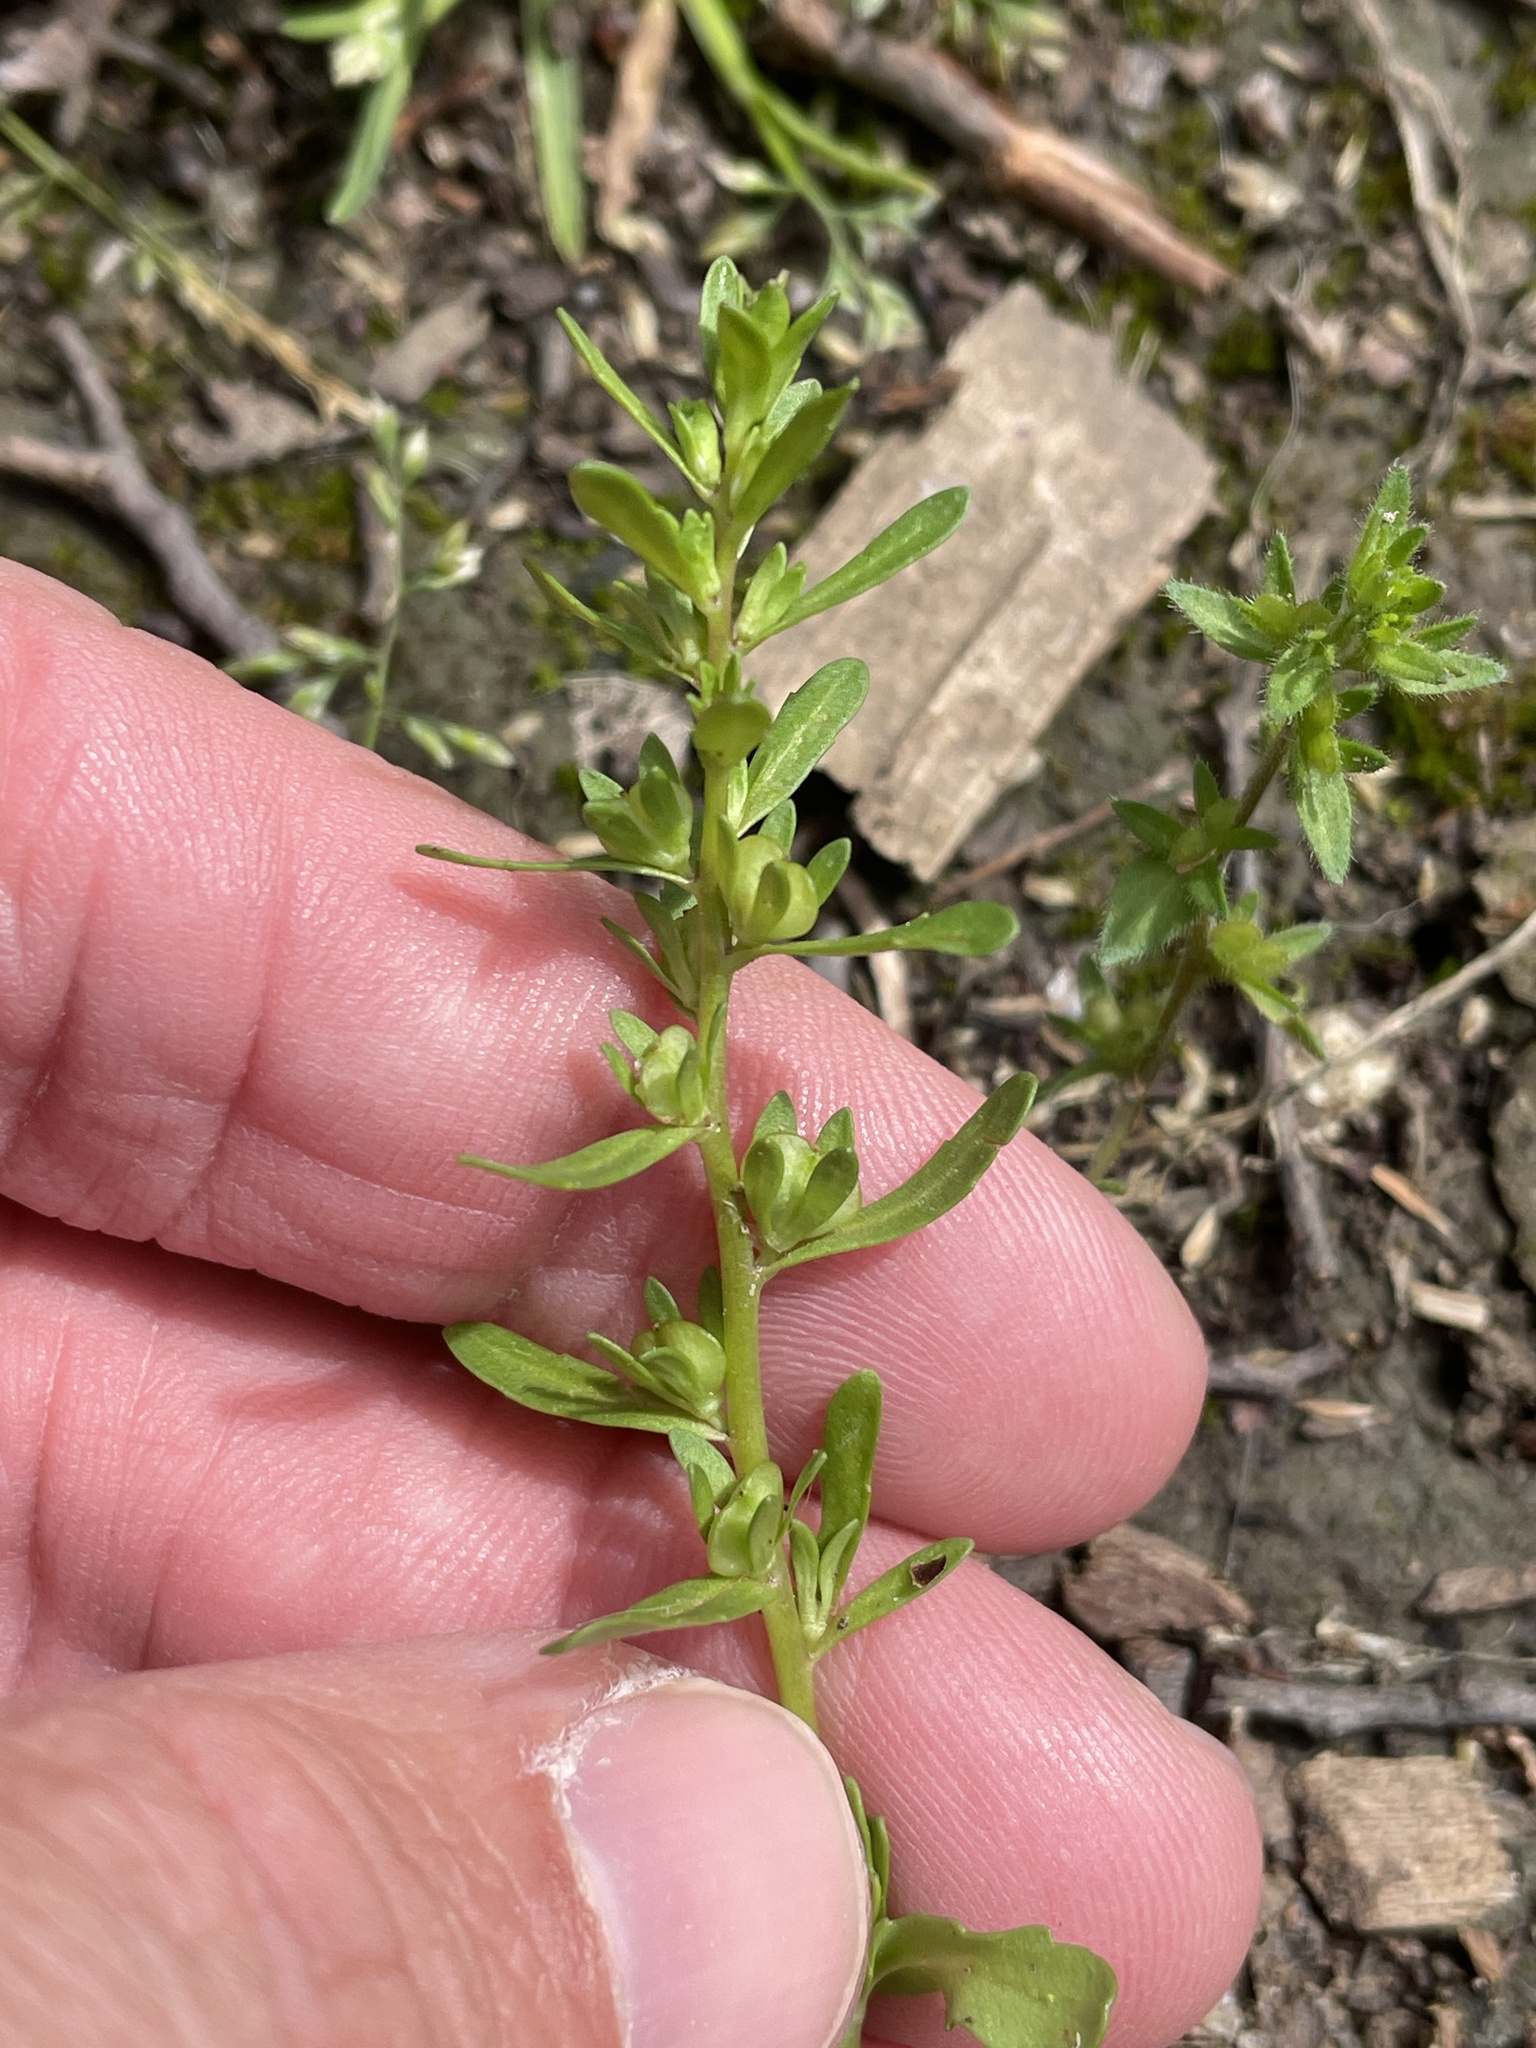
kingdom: Plantae
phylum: Tracheophyta
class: Magnoliopsida
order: Lamiales
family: Plantaginaceae
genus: Veronica
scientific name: Veronica peregrina
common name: Neckweed
